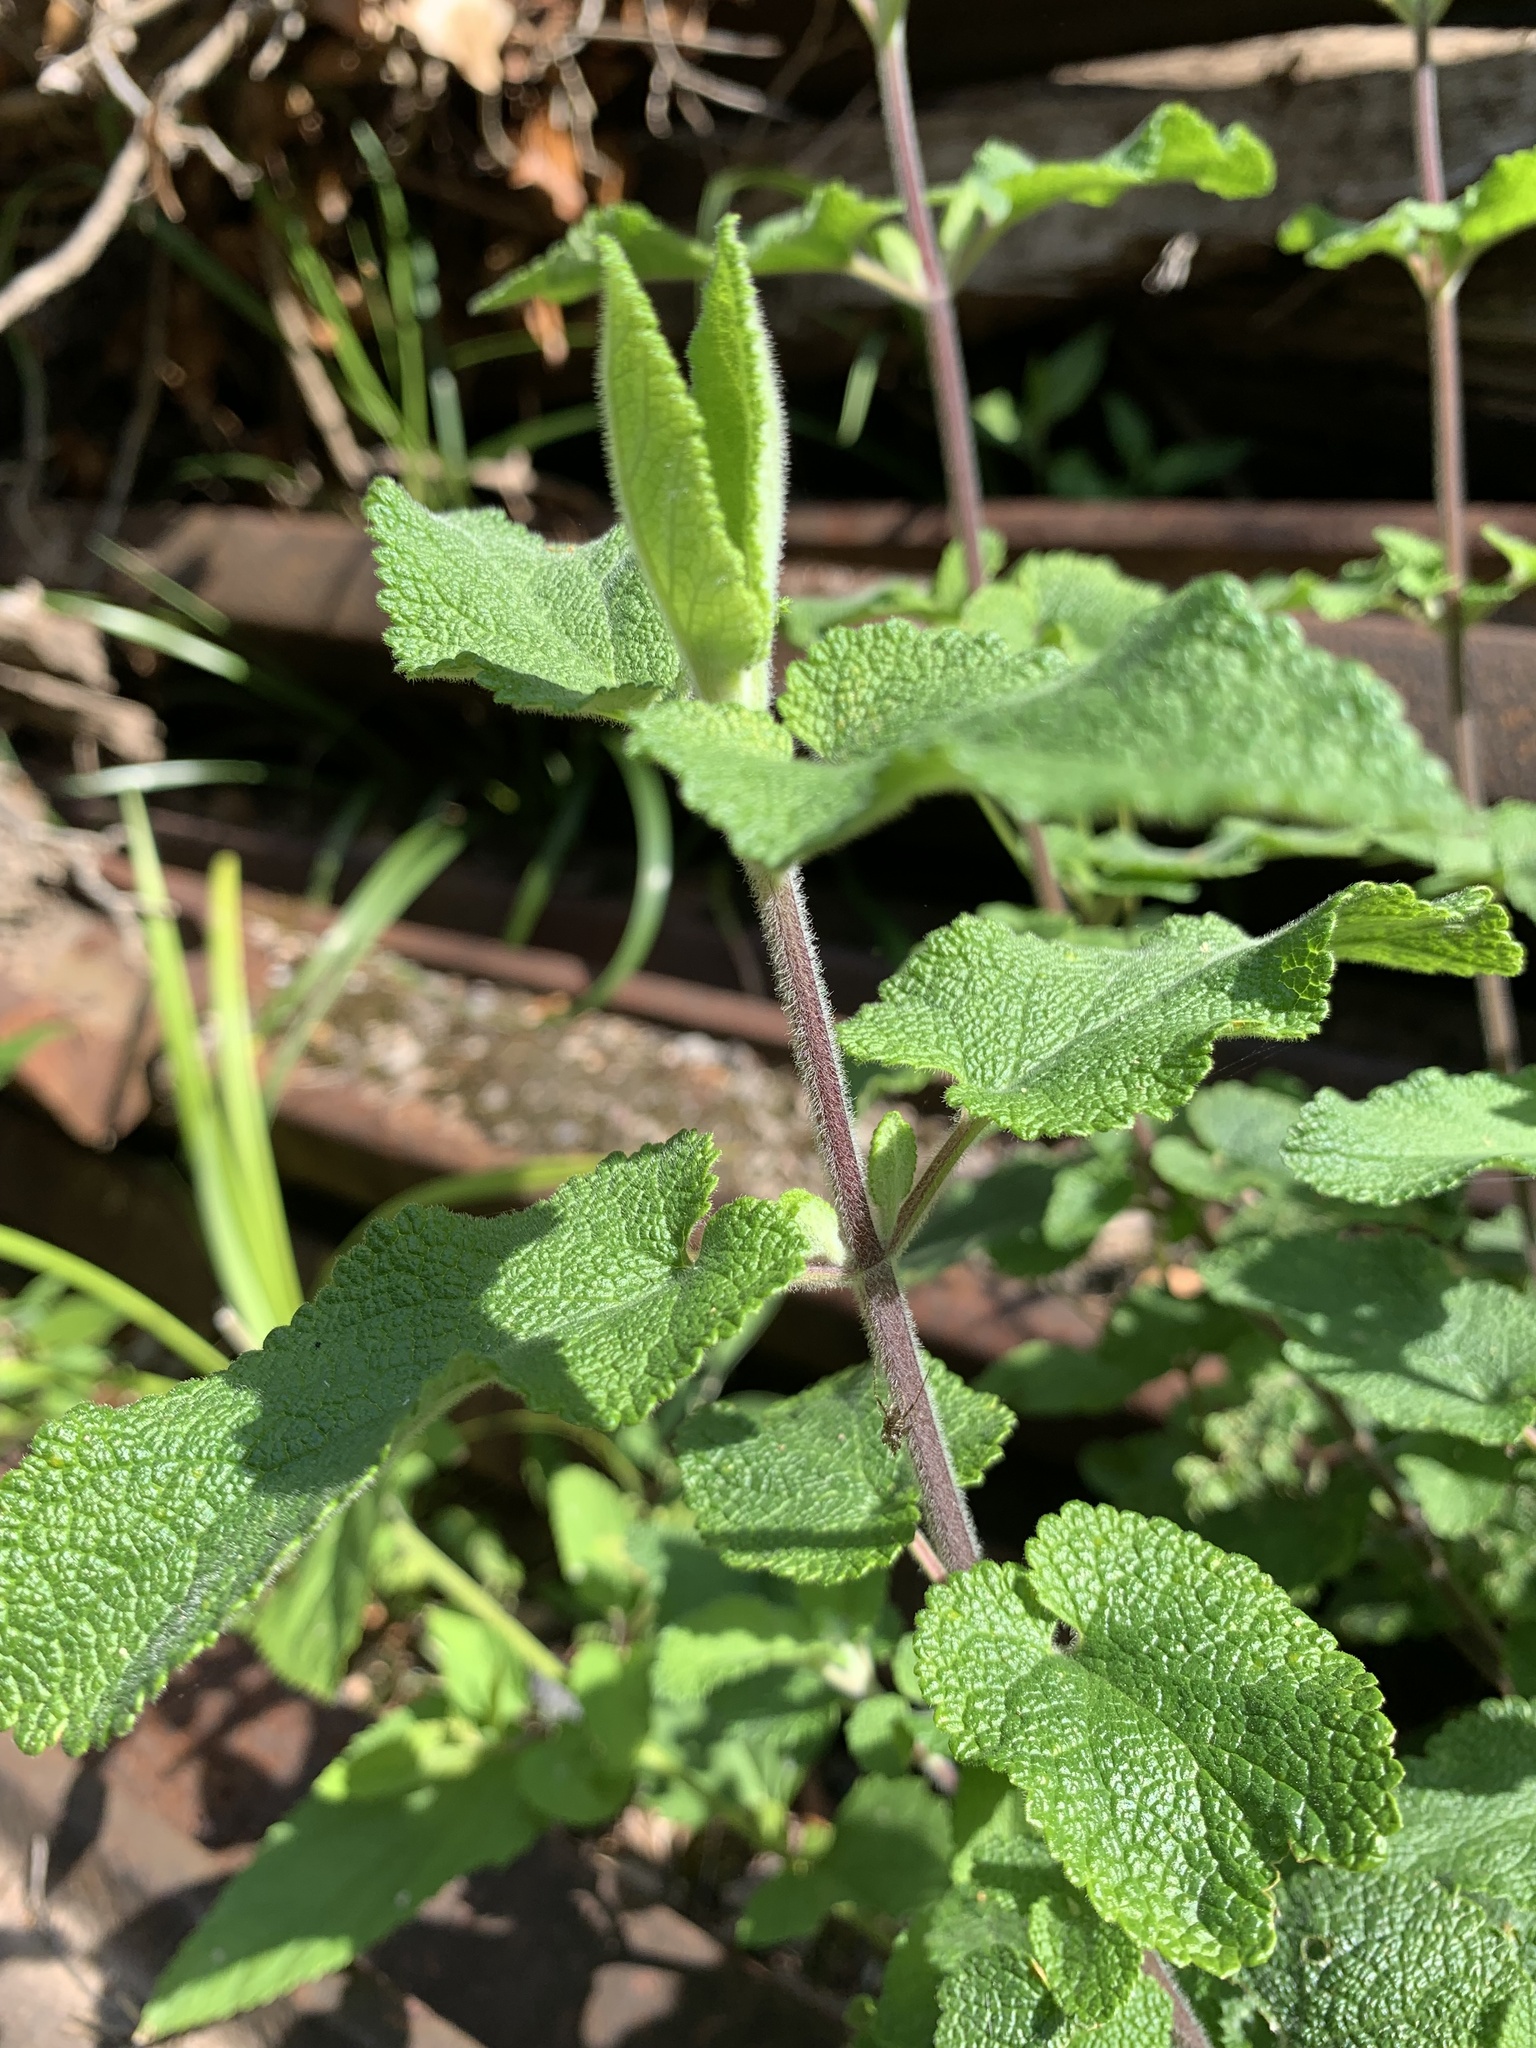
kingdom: Plantae
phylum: Tracheophyta
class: Magnoliopsida
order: Lamiales
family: Lamiaceae
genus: Teucrium
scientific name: Teucrium scorodonia
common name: Woodland germander
